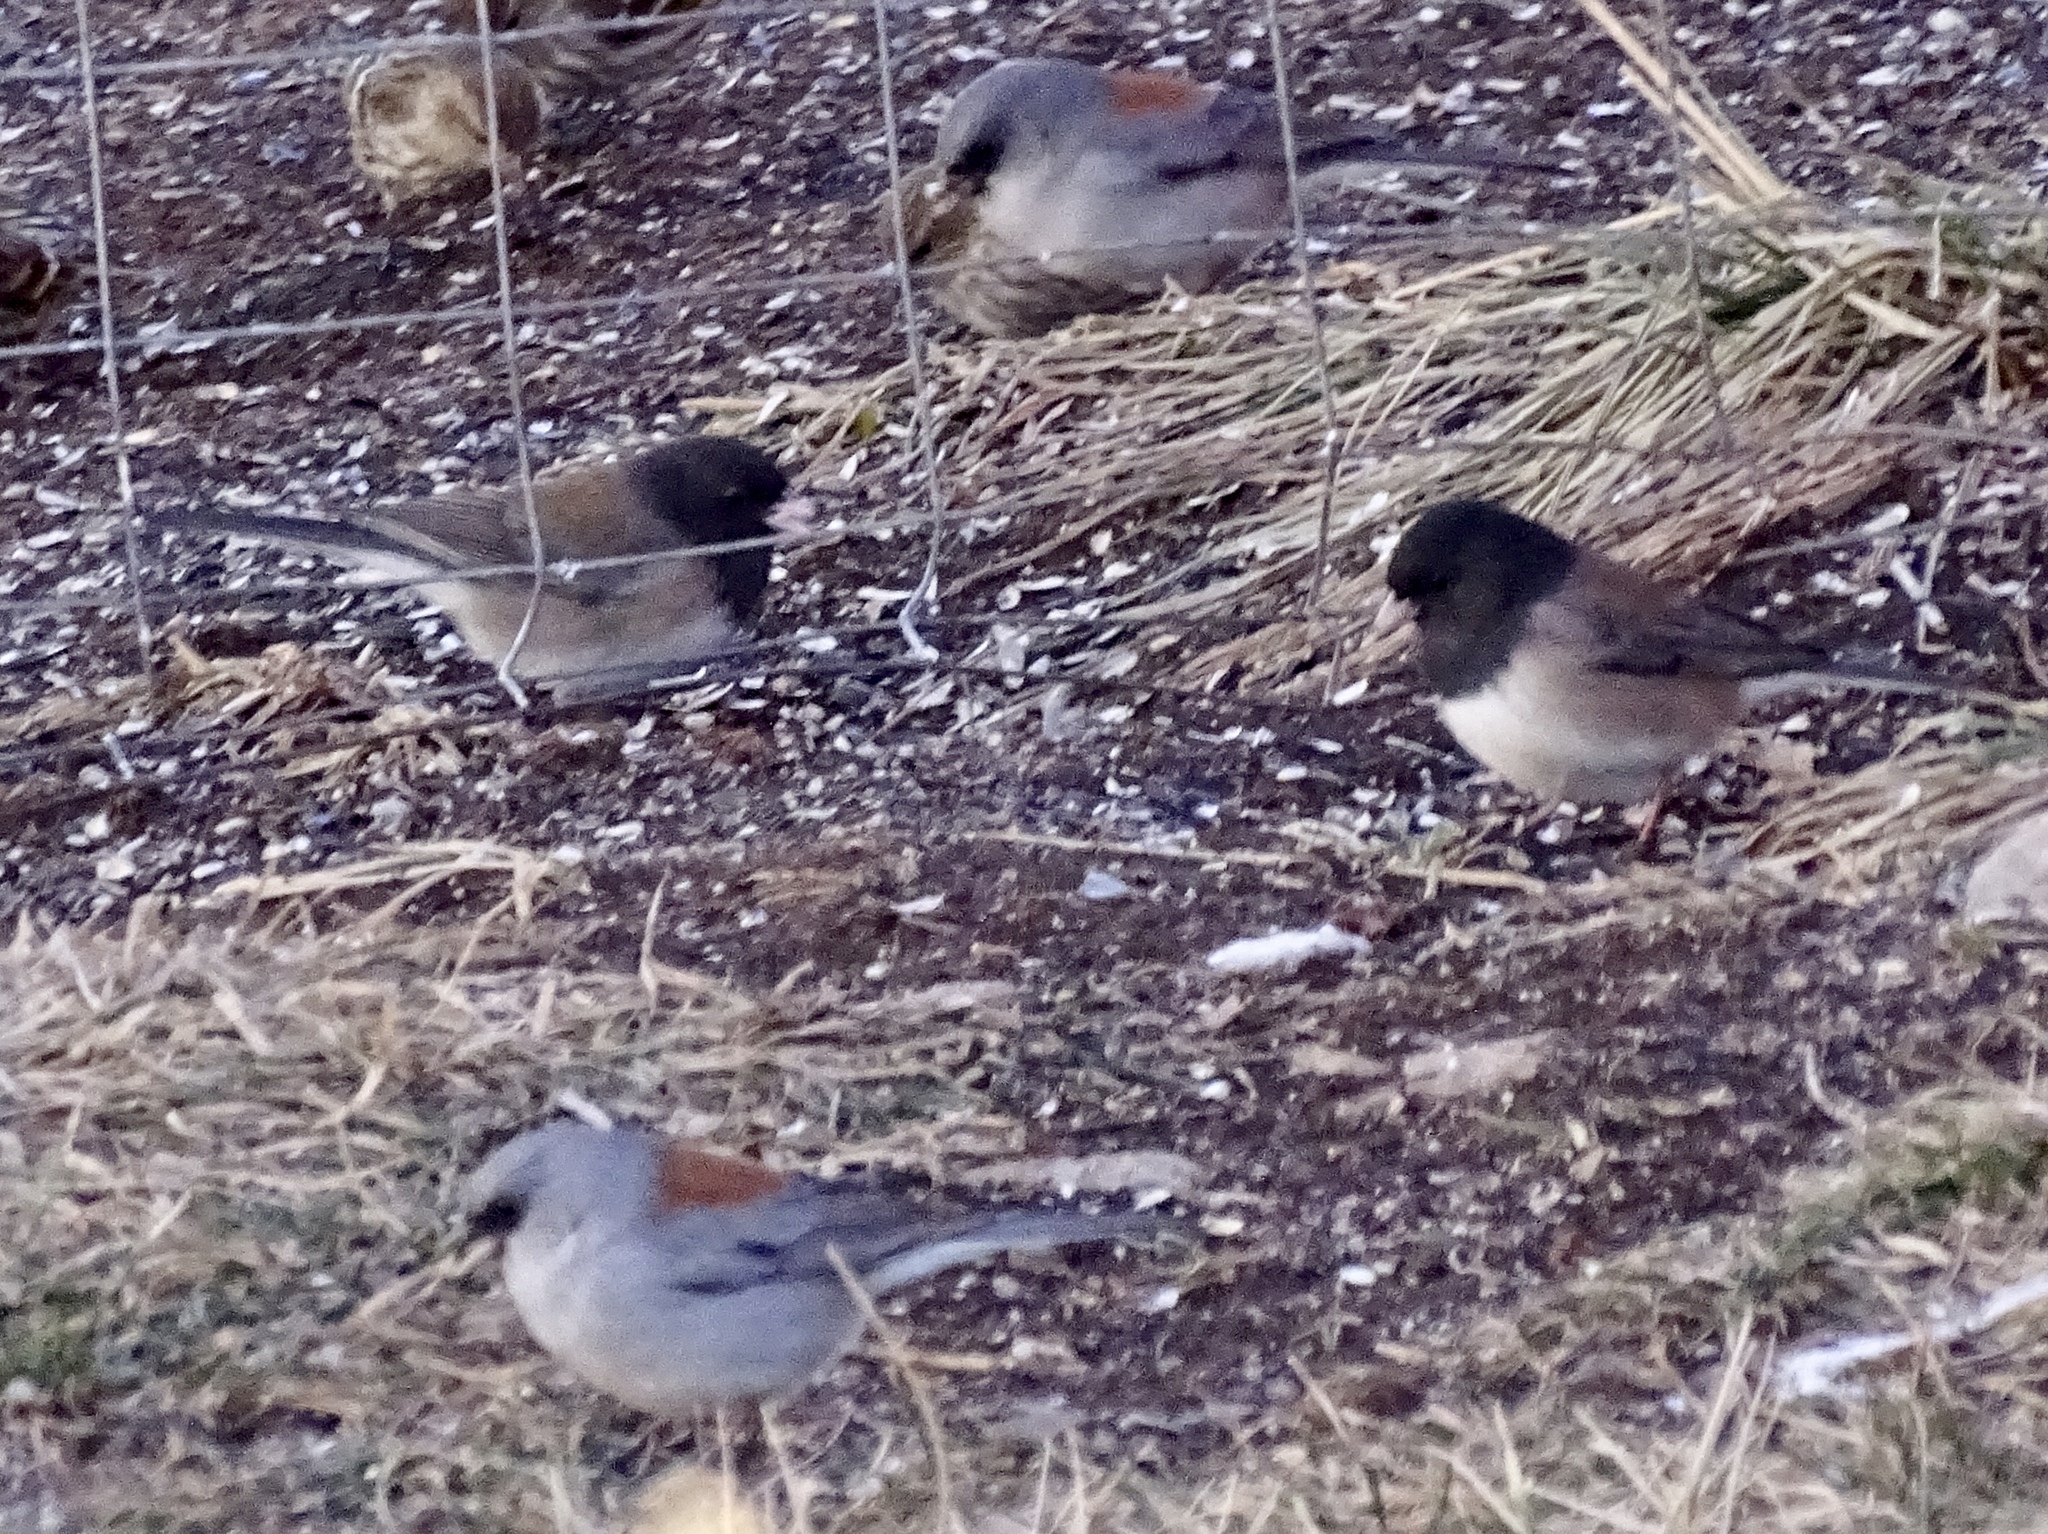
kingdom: Animalia
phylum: Chordata
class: Aves
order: Passeriformes
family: Passerellidae
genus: Junco
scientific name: Junco hyemalis
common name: Dark-eyed junco
